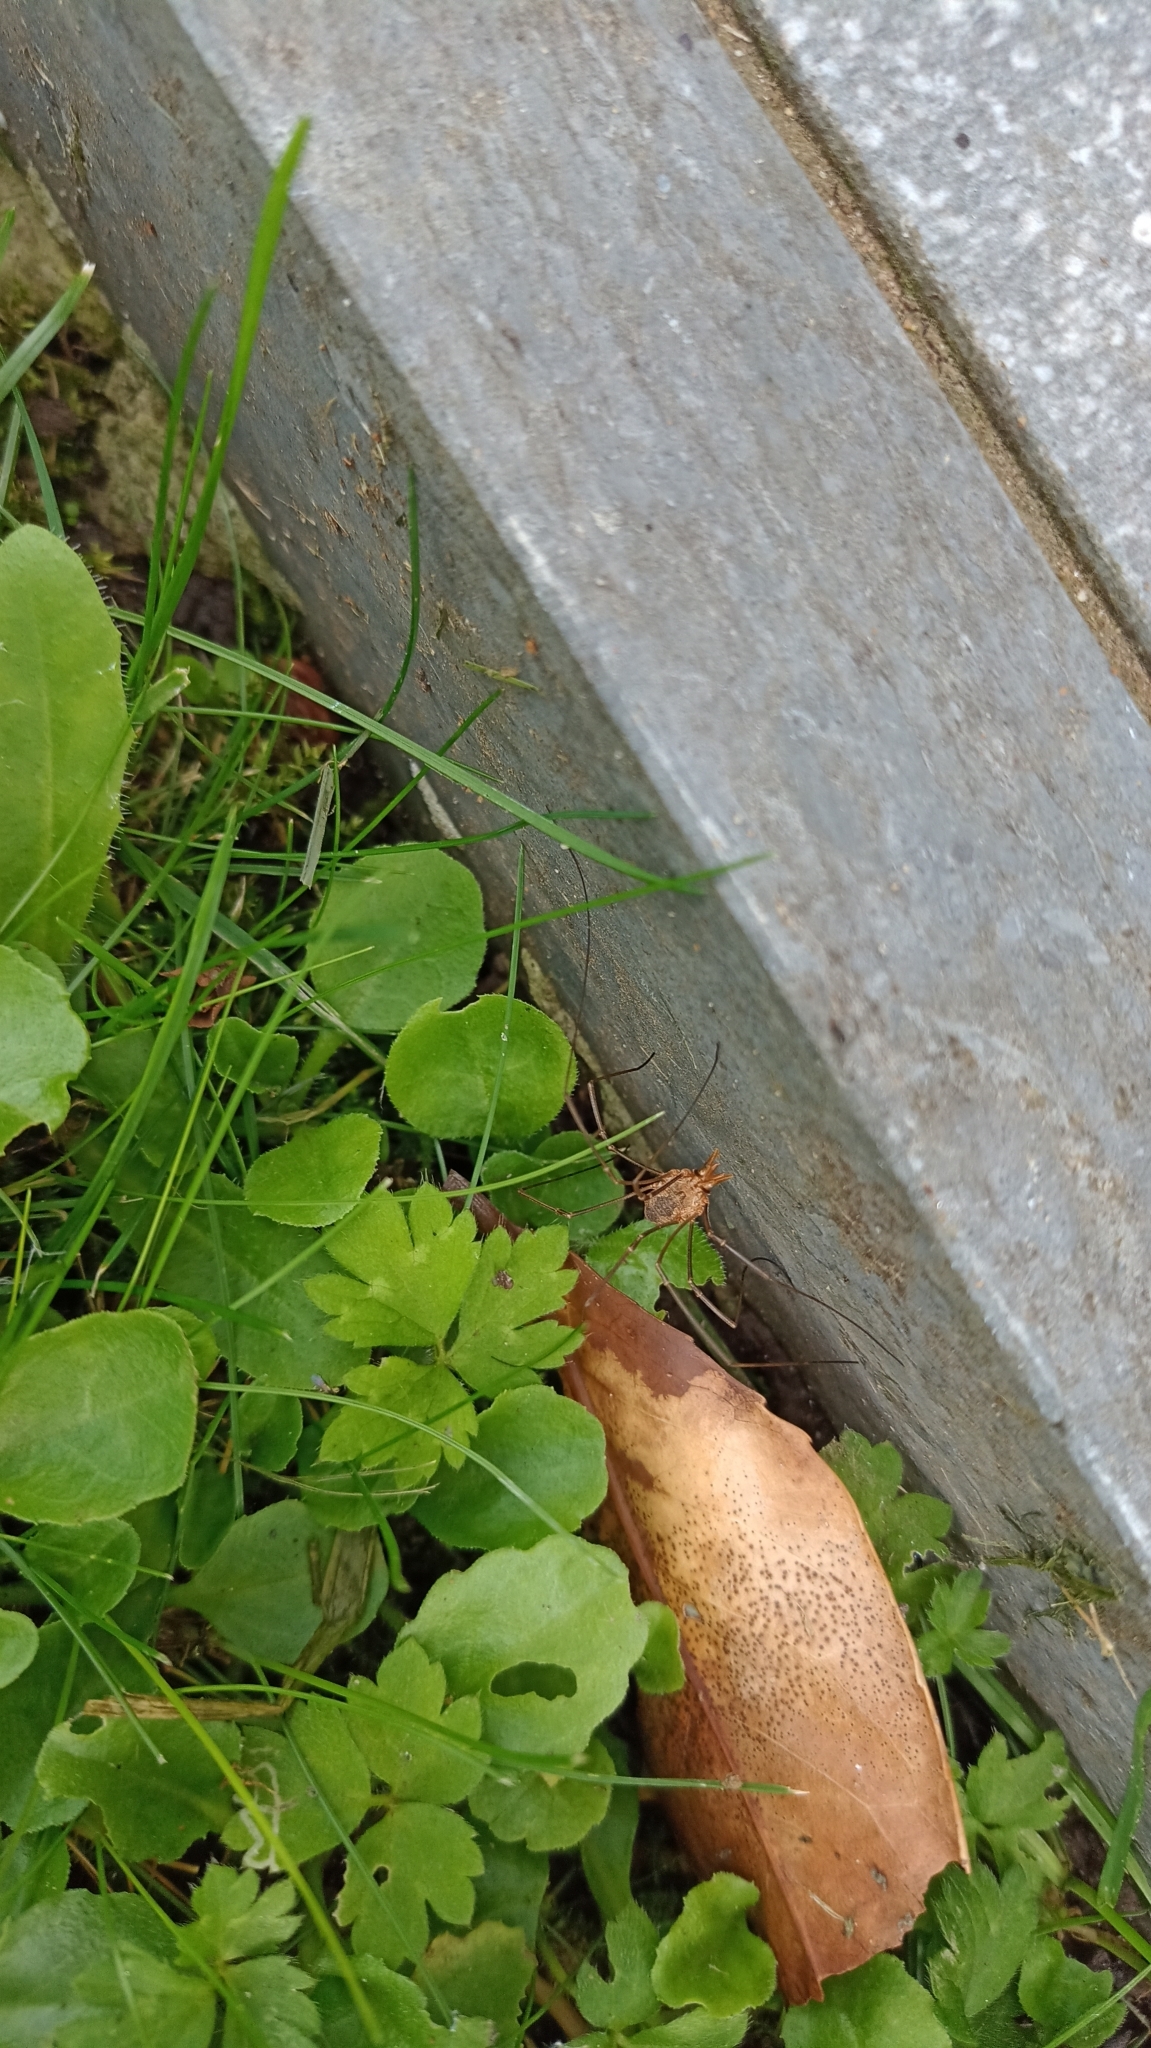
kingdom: Animalia
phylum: Arthropoda
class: Arachnida
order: Opiliones
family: Phalangiidae
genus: Phalangium
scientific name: Phalangium opilio
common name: Daddy longleg
